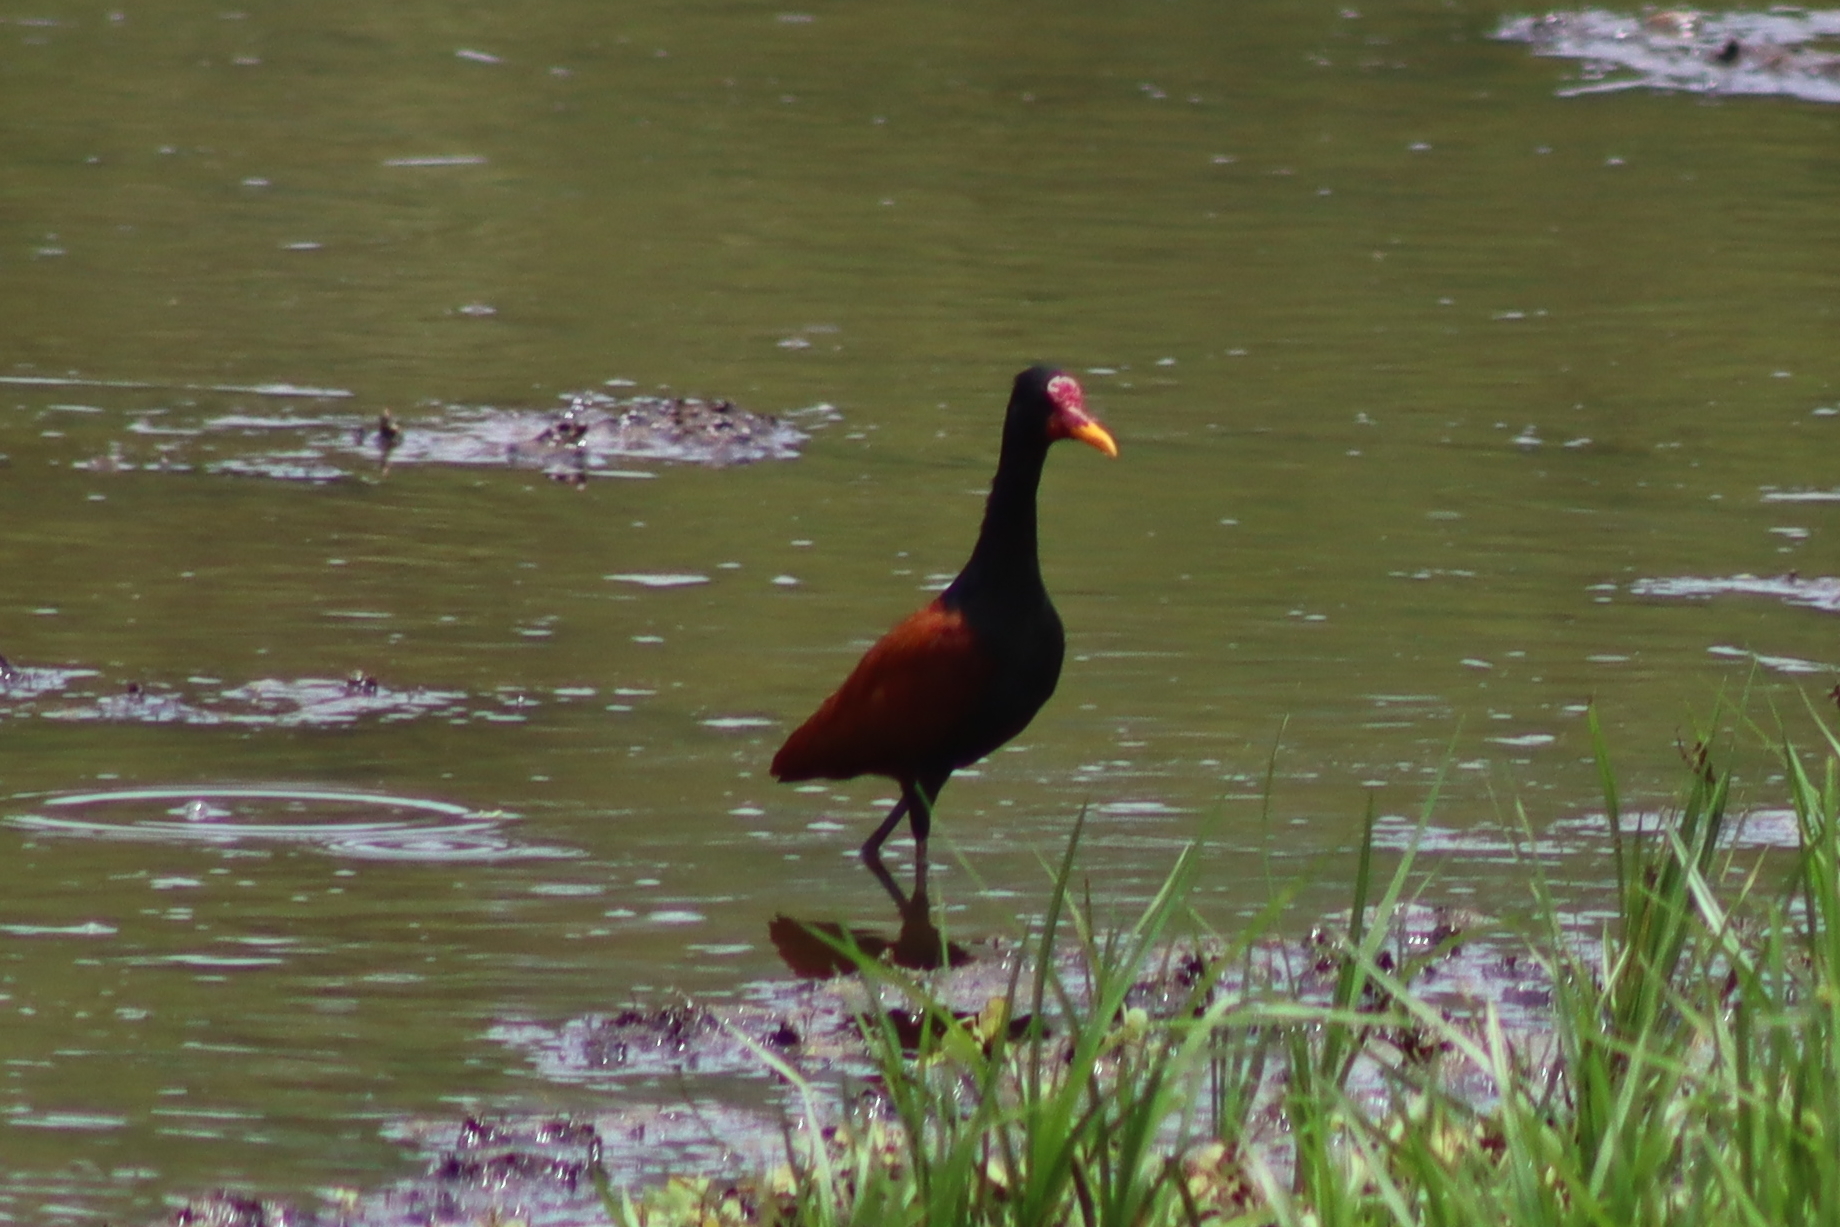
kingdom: Animalia
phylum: Chordata
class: Aves
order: Charadriiformes
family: Jacanidae
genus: Jacana
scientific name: Jacana jacana
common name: Wattled jacana
